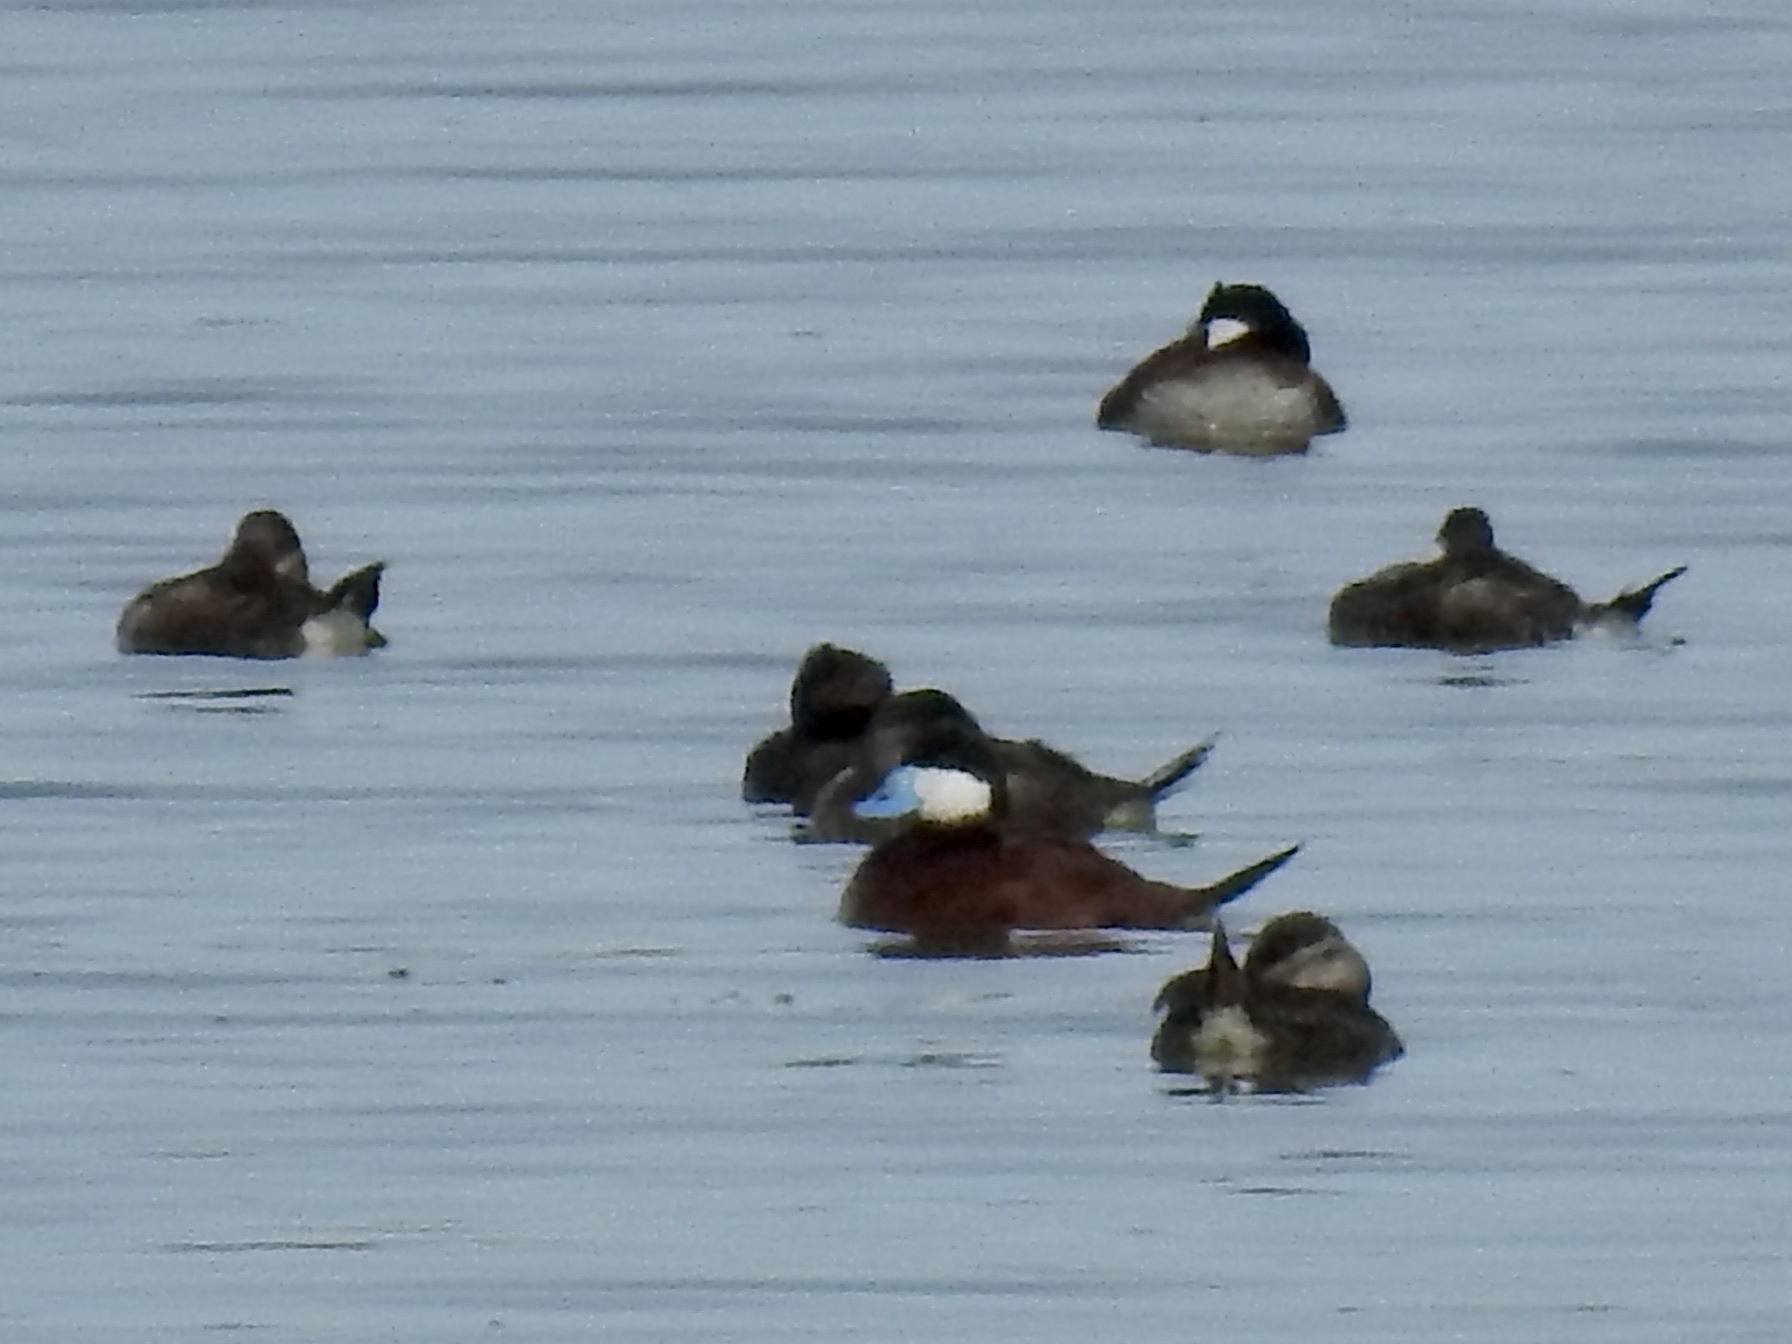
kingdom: Animalia
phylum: Chordata
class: Aves
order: Anseriformes
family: Anatidae
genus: Oxyura
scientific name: Oxyura jamaicensis
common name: Ruddy duck
